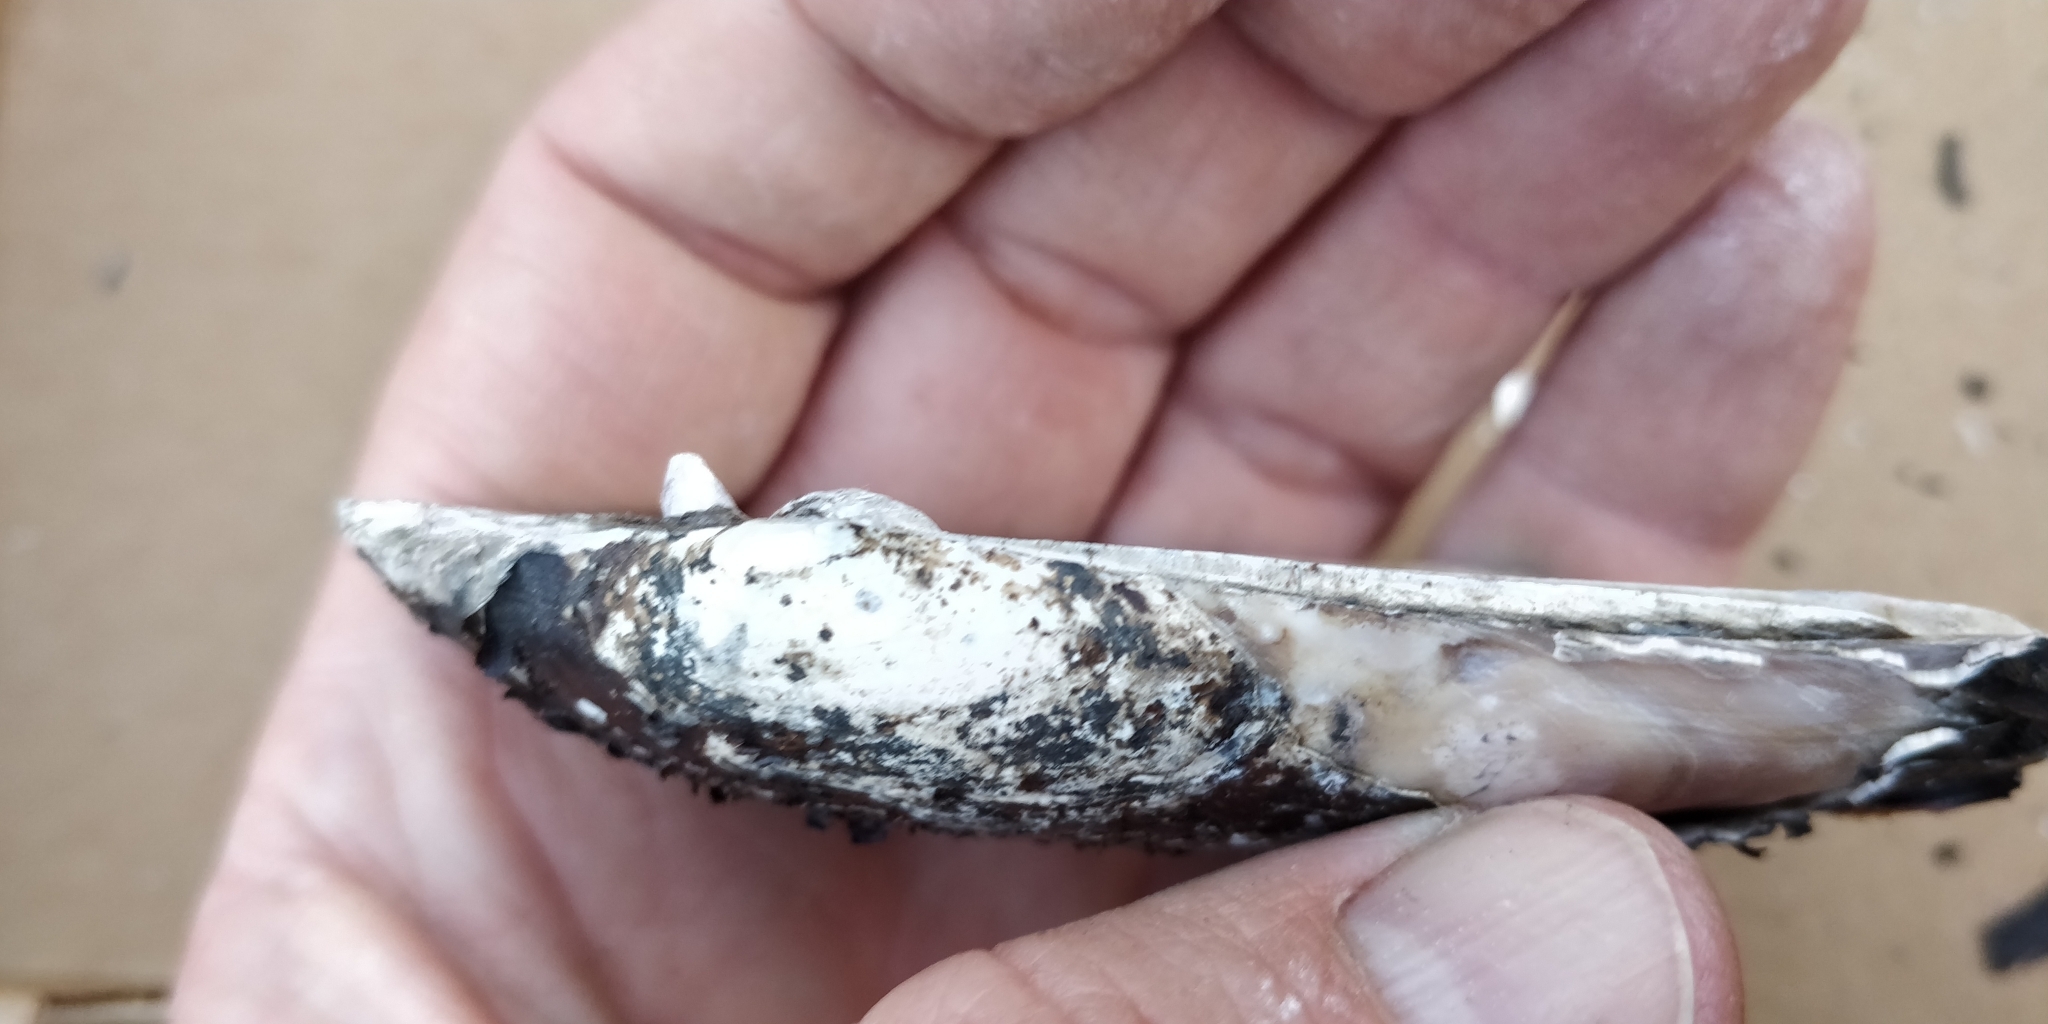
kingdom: Animalia
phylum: Mollusca
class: Bivalvia
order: Unionida
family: Unionidae
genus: Ligumia
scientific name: Ligumia recta
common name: Black sandshell
